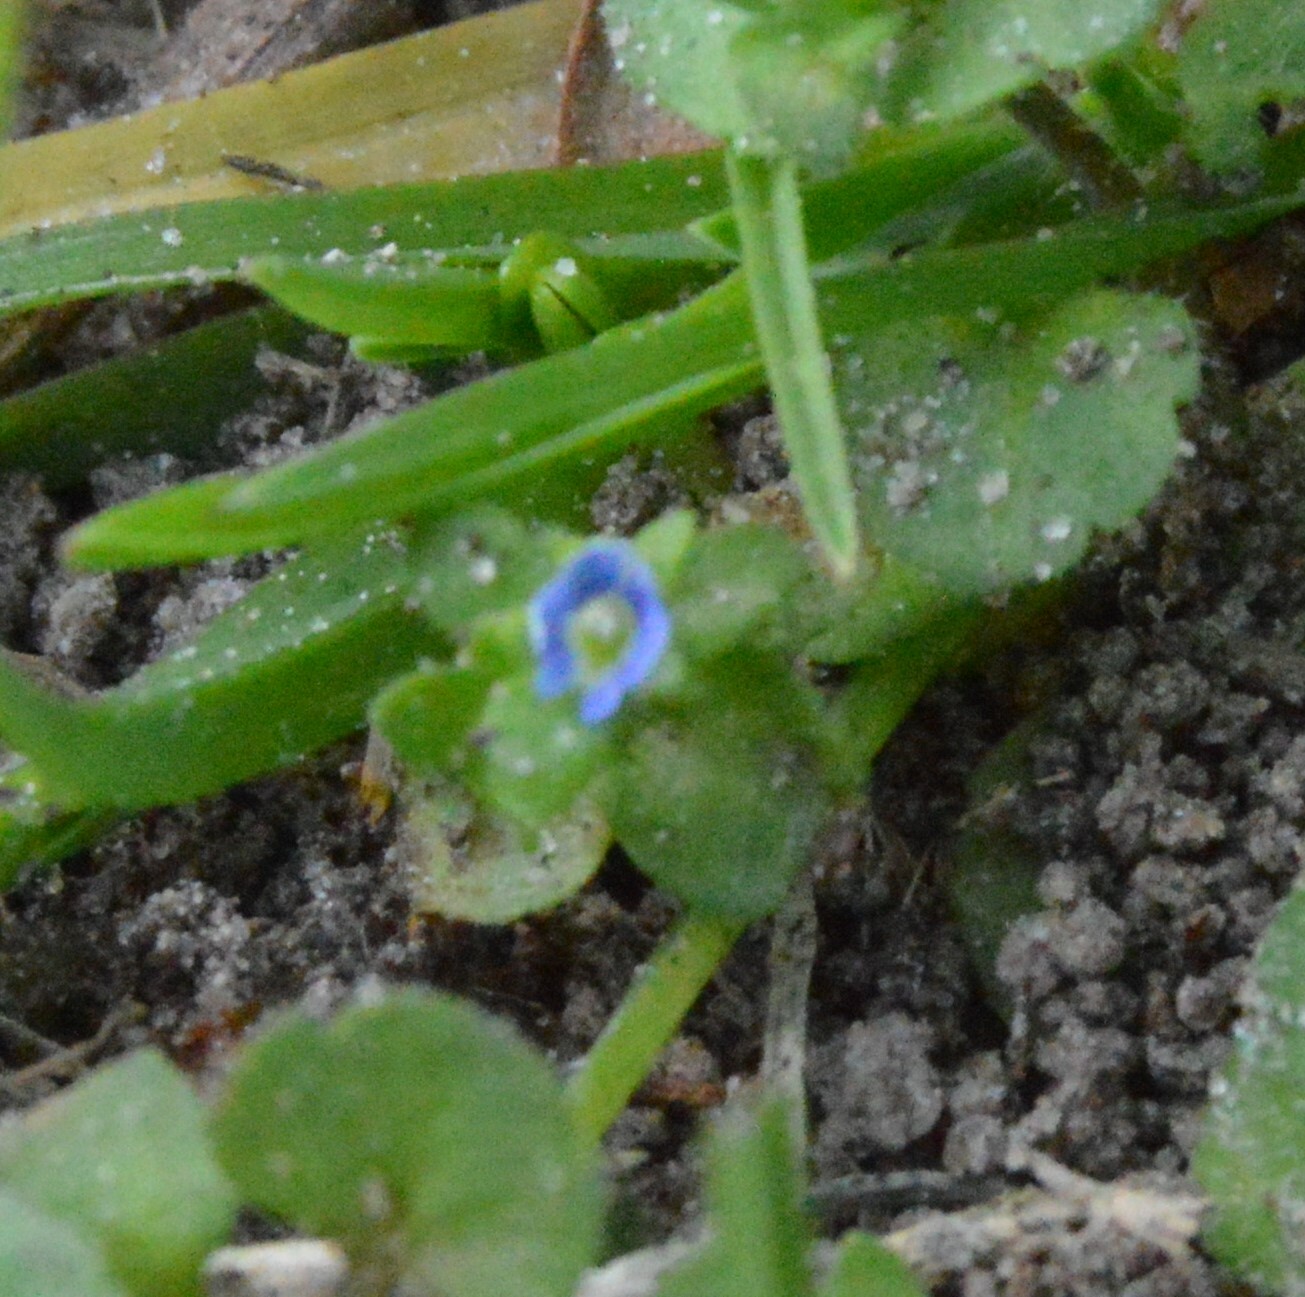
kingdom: Plantae
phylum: Tracheophyta
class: Magnoliopsida
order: Lamiales
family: Plantaginaceae
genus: Veronica
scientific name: Veronica arvensis
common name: Corn speedwell
